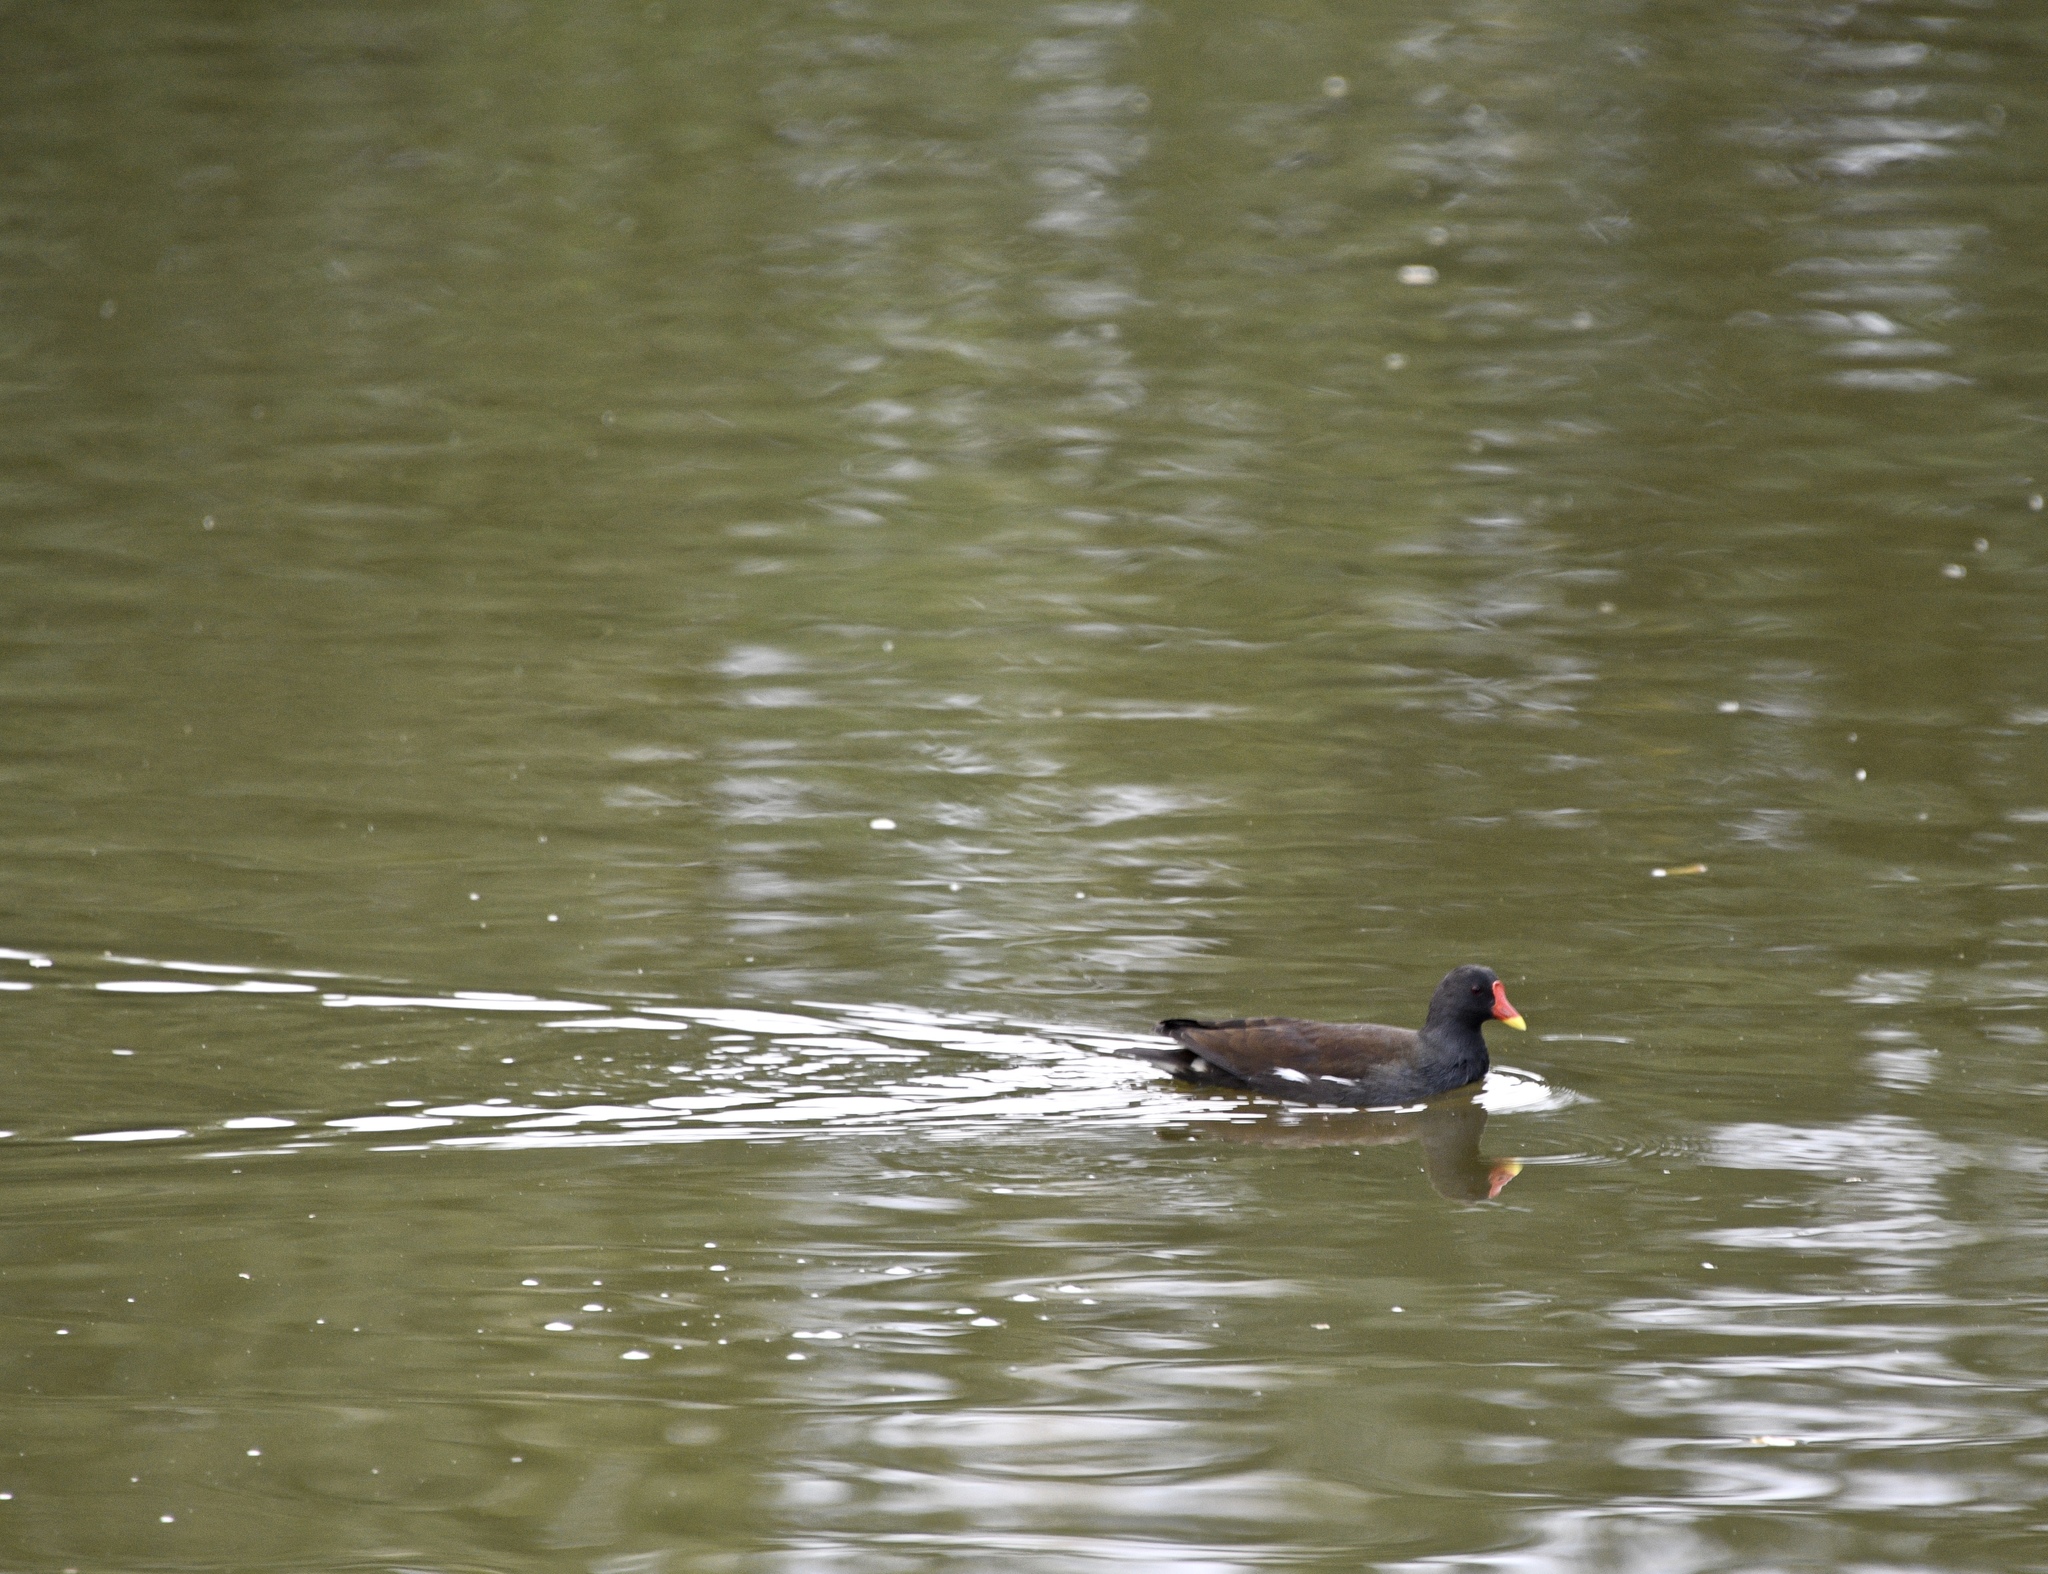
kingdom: Animalia
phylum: Chordata
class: Aves
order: Gruiformes
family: Rallidae
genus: Gallinula
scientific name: Gallinula chloropus
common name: Common moorhen
